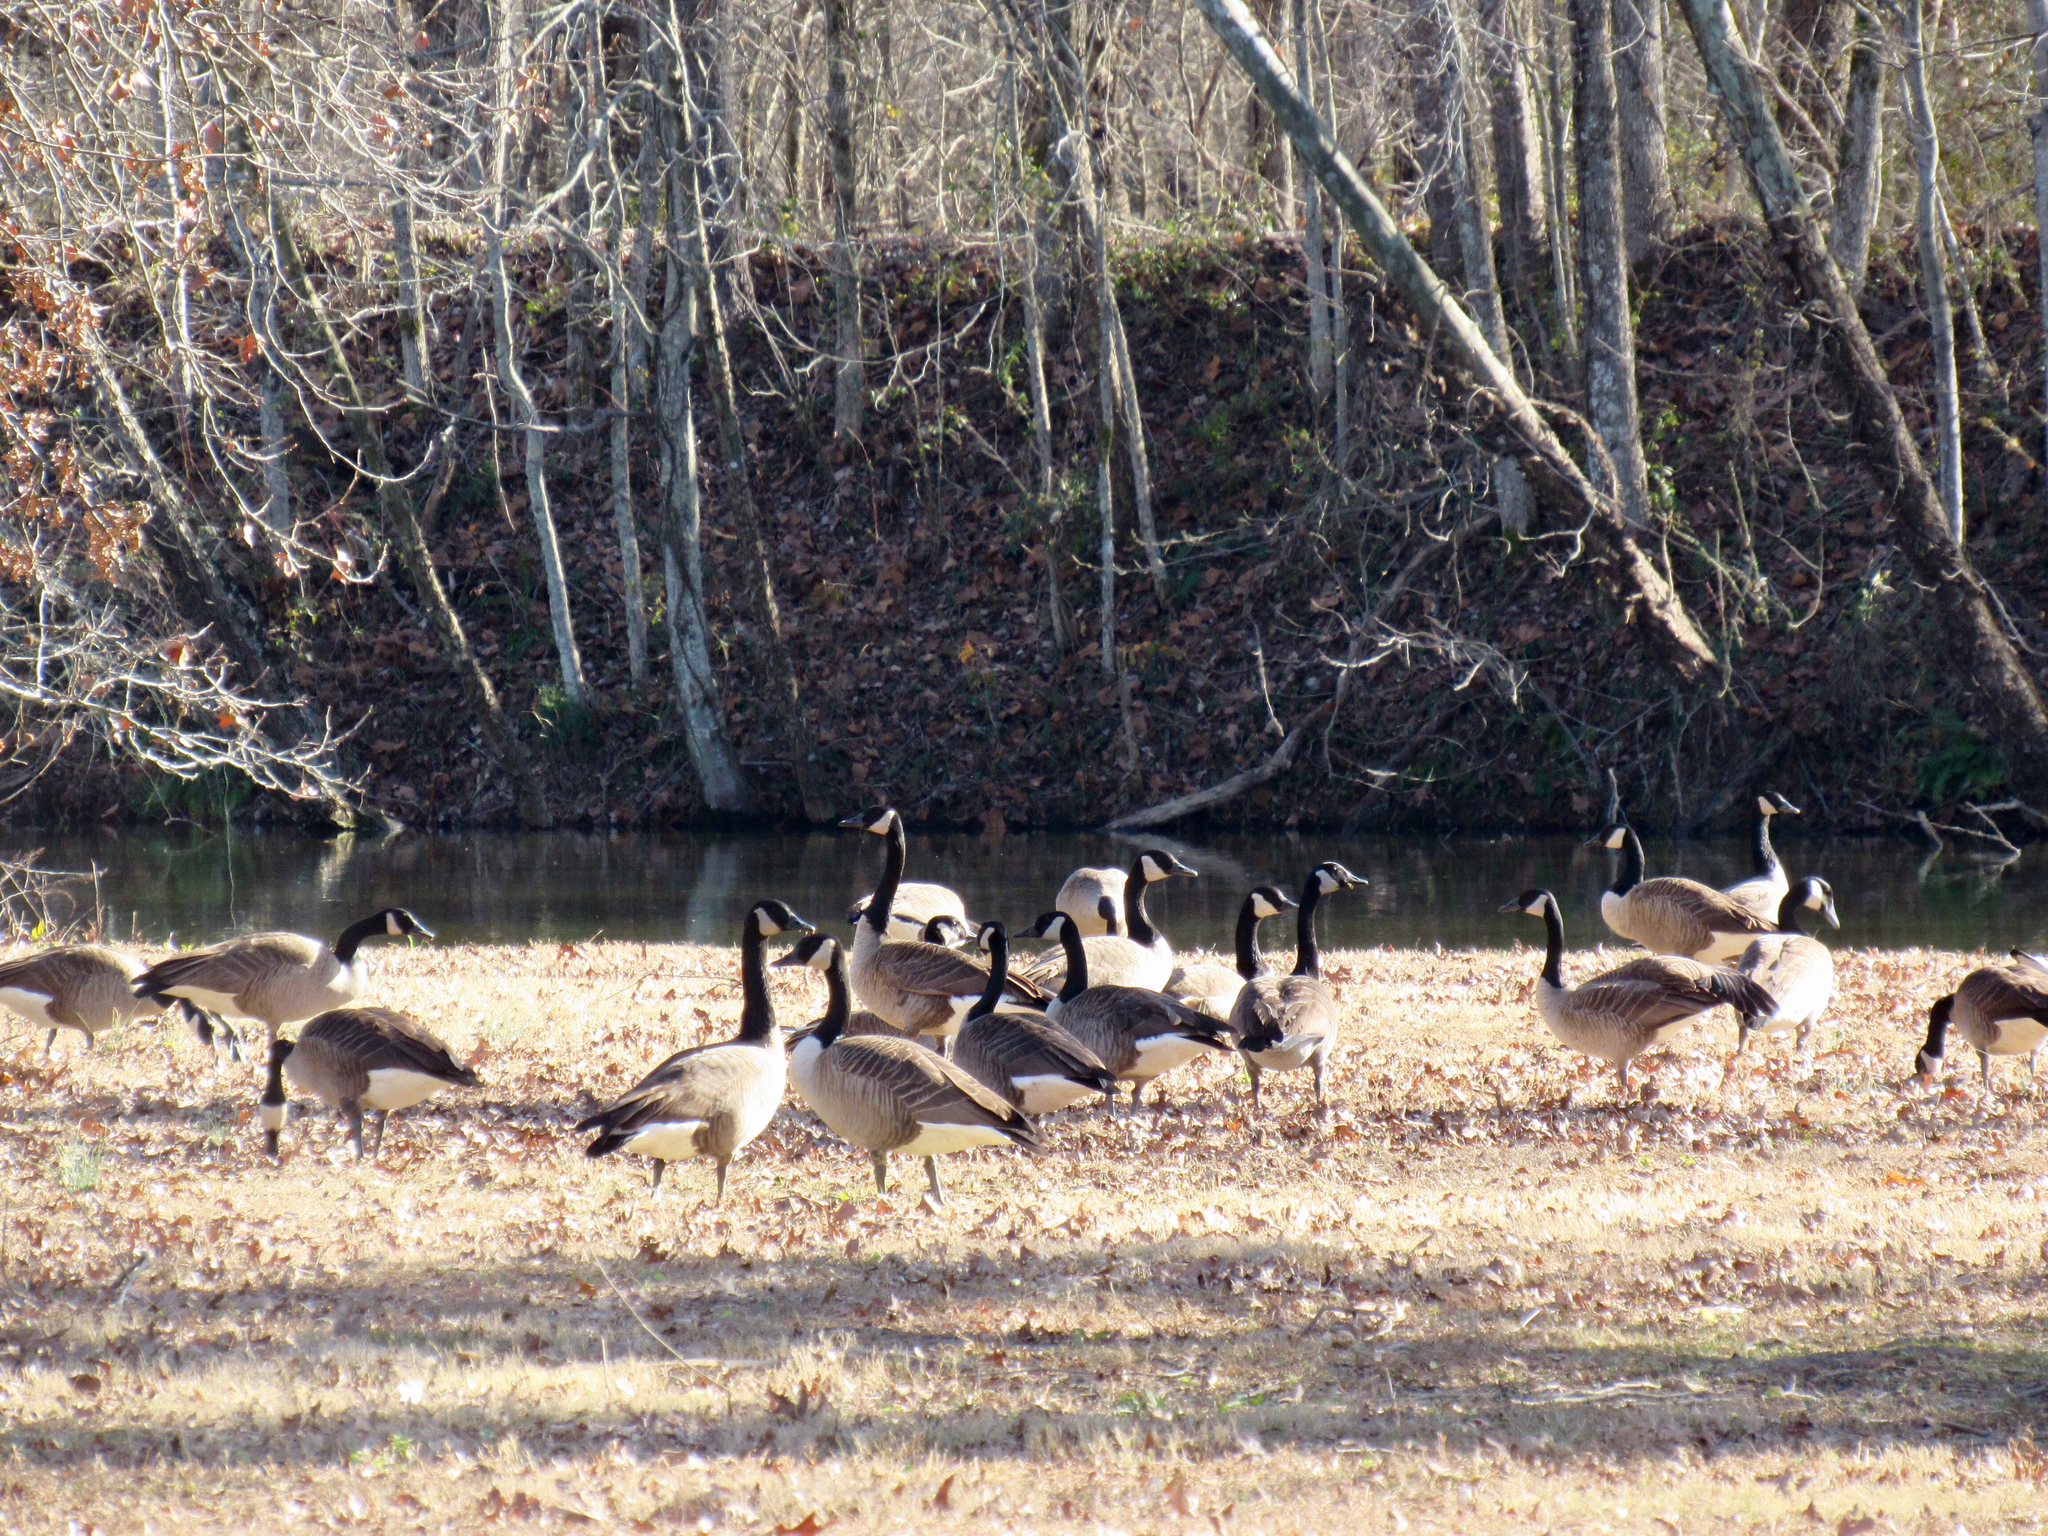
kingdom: Animalia
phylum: Chordata
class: Aves
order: Anseriformes
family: Anatidae
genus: Branta
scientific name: Branta canadensis
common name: Canada goose
